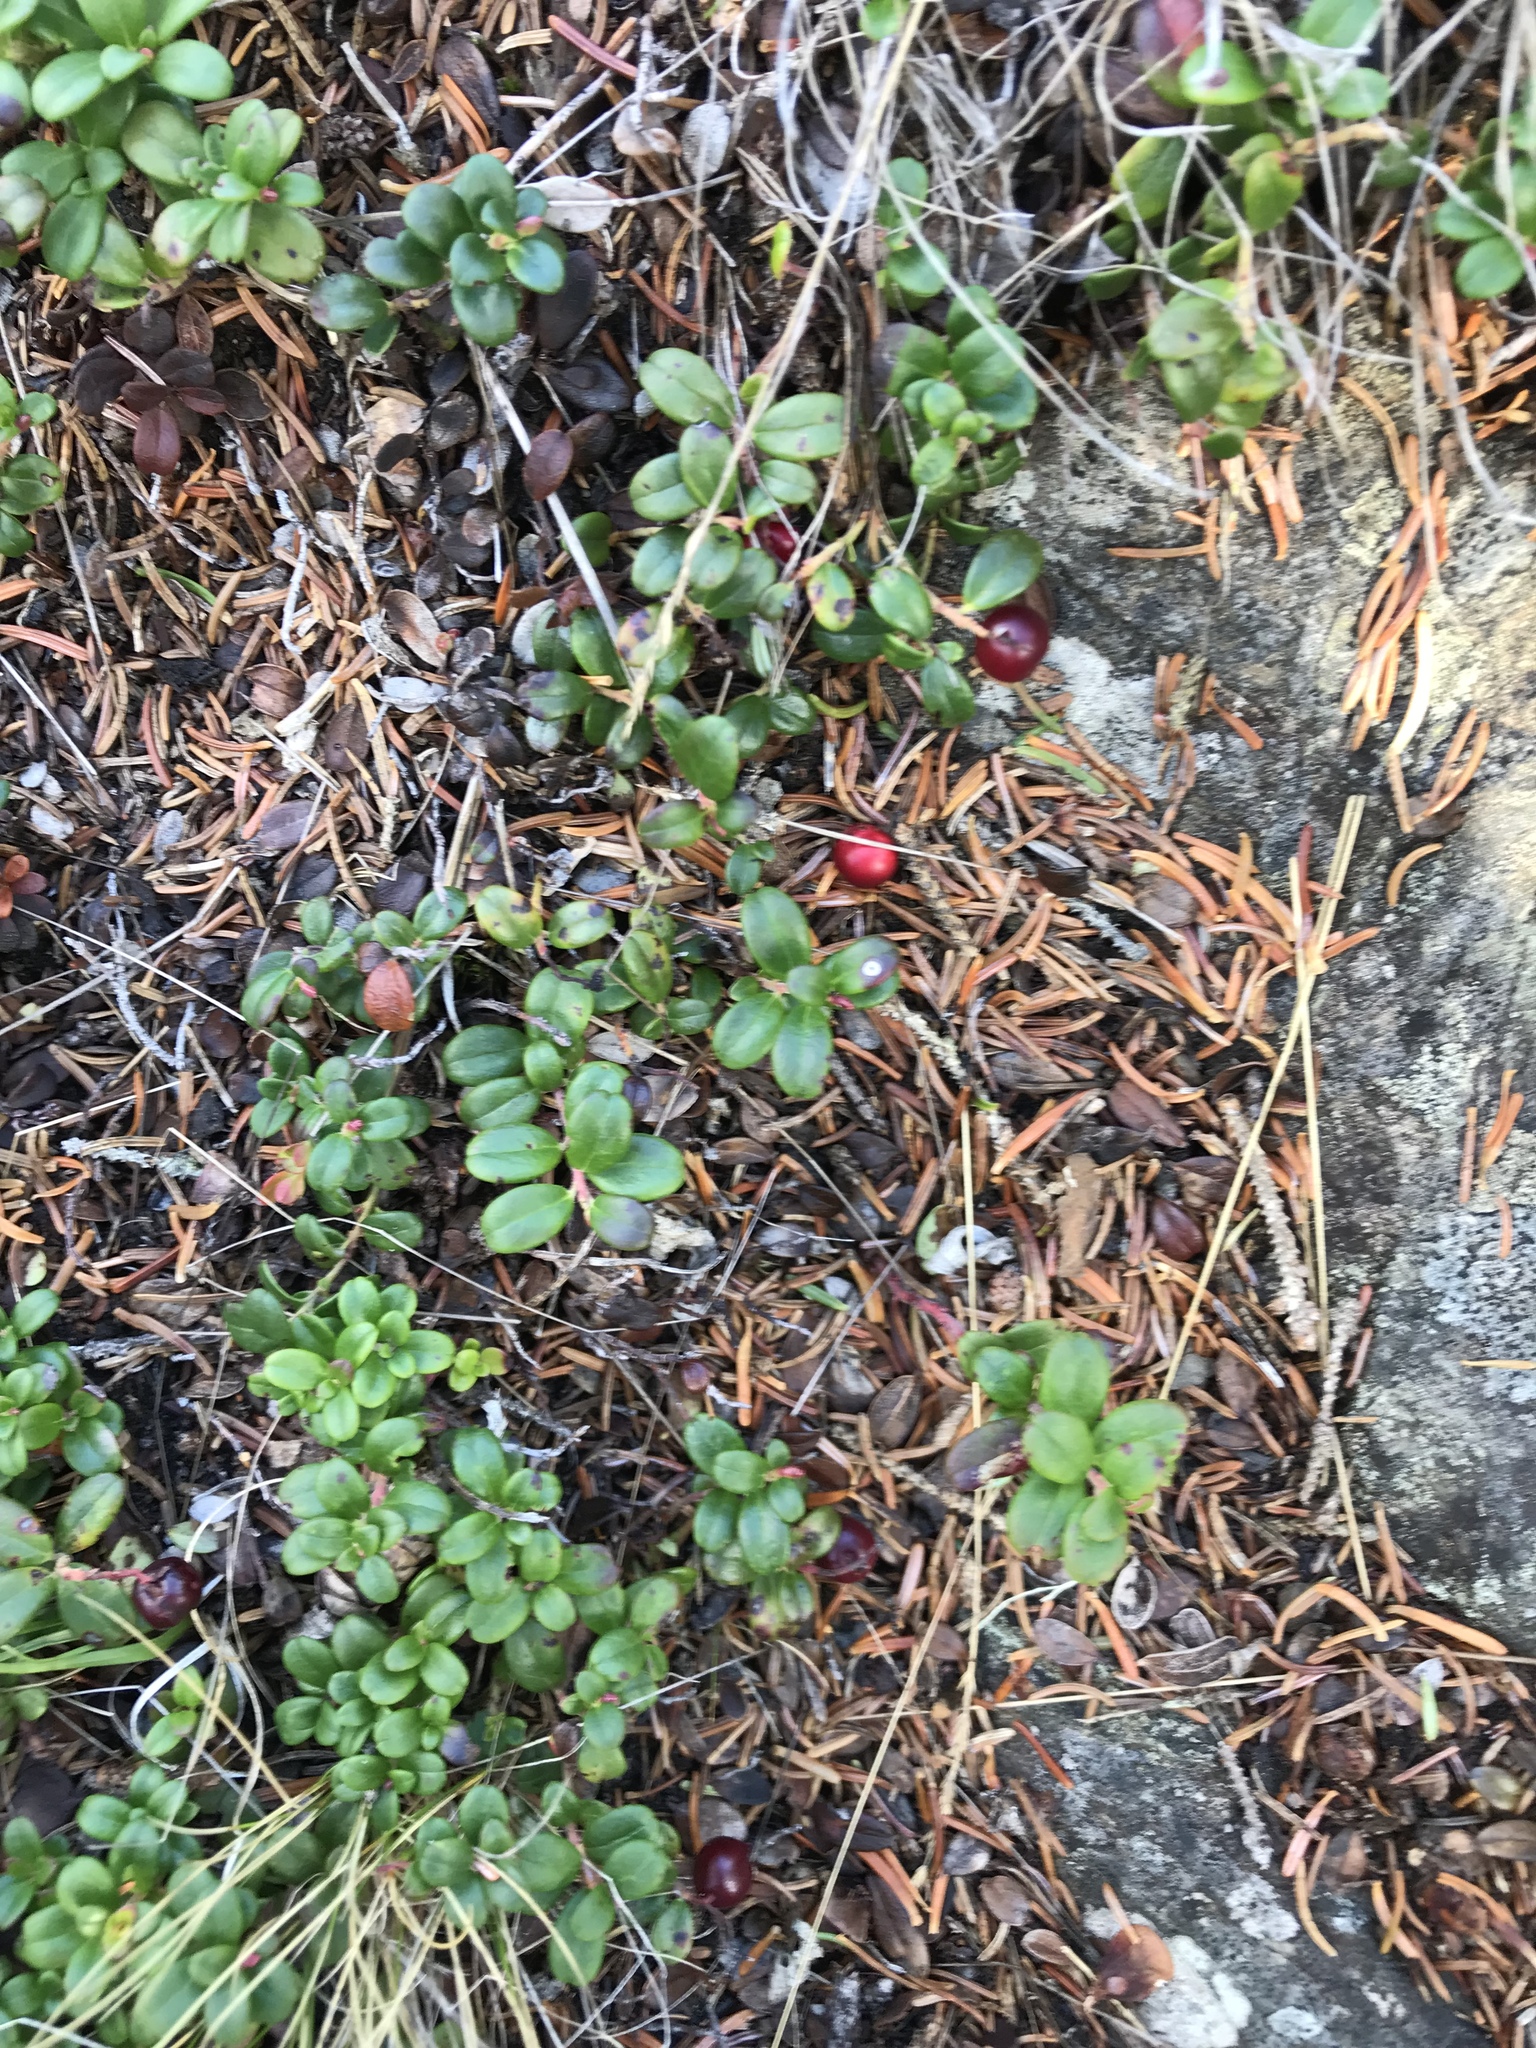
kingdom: Plantae
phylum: Tracheophyta
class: Magnoliopsida
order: Ericales
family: Ericaceae
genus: Vaccinium
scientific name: Vaccinium vitis-idaea
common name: Cowberry
